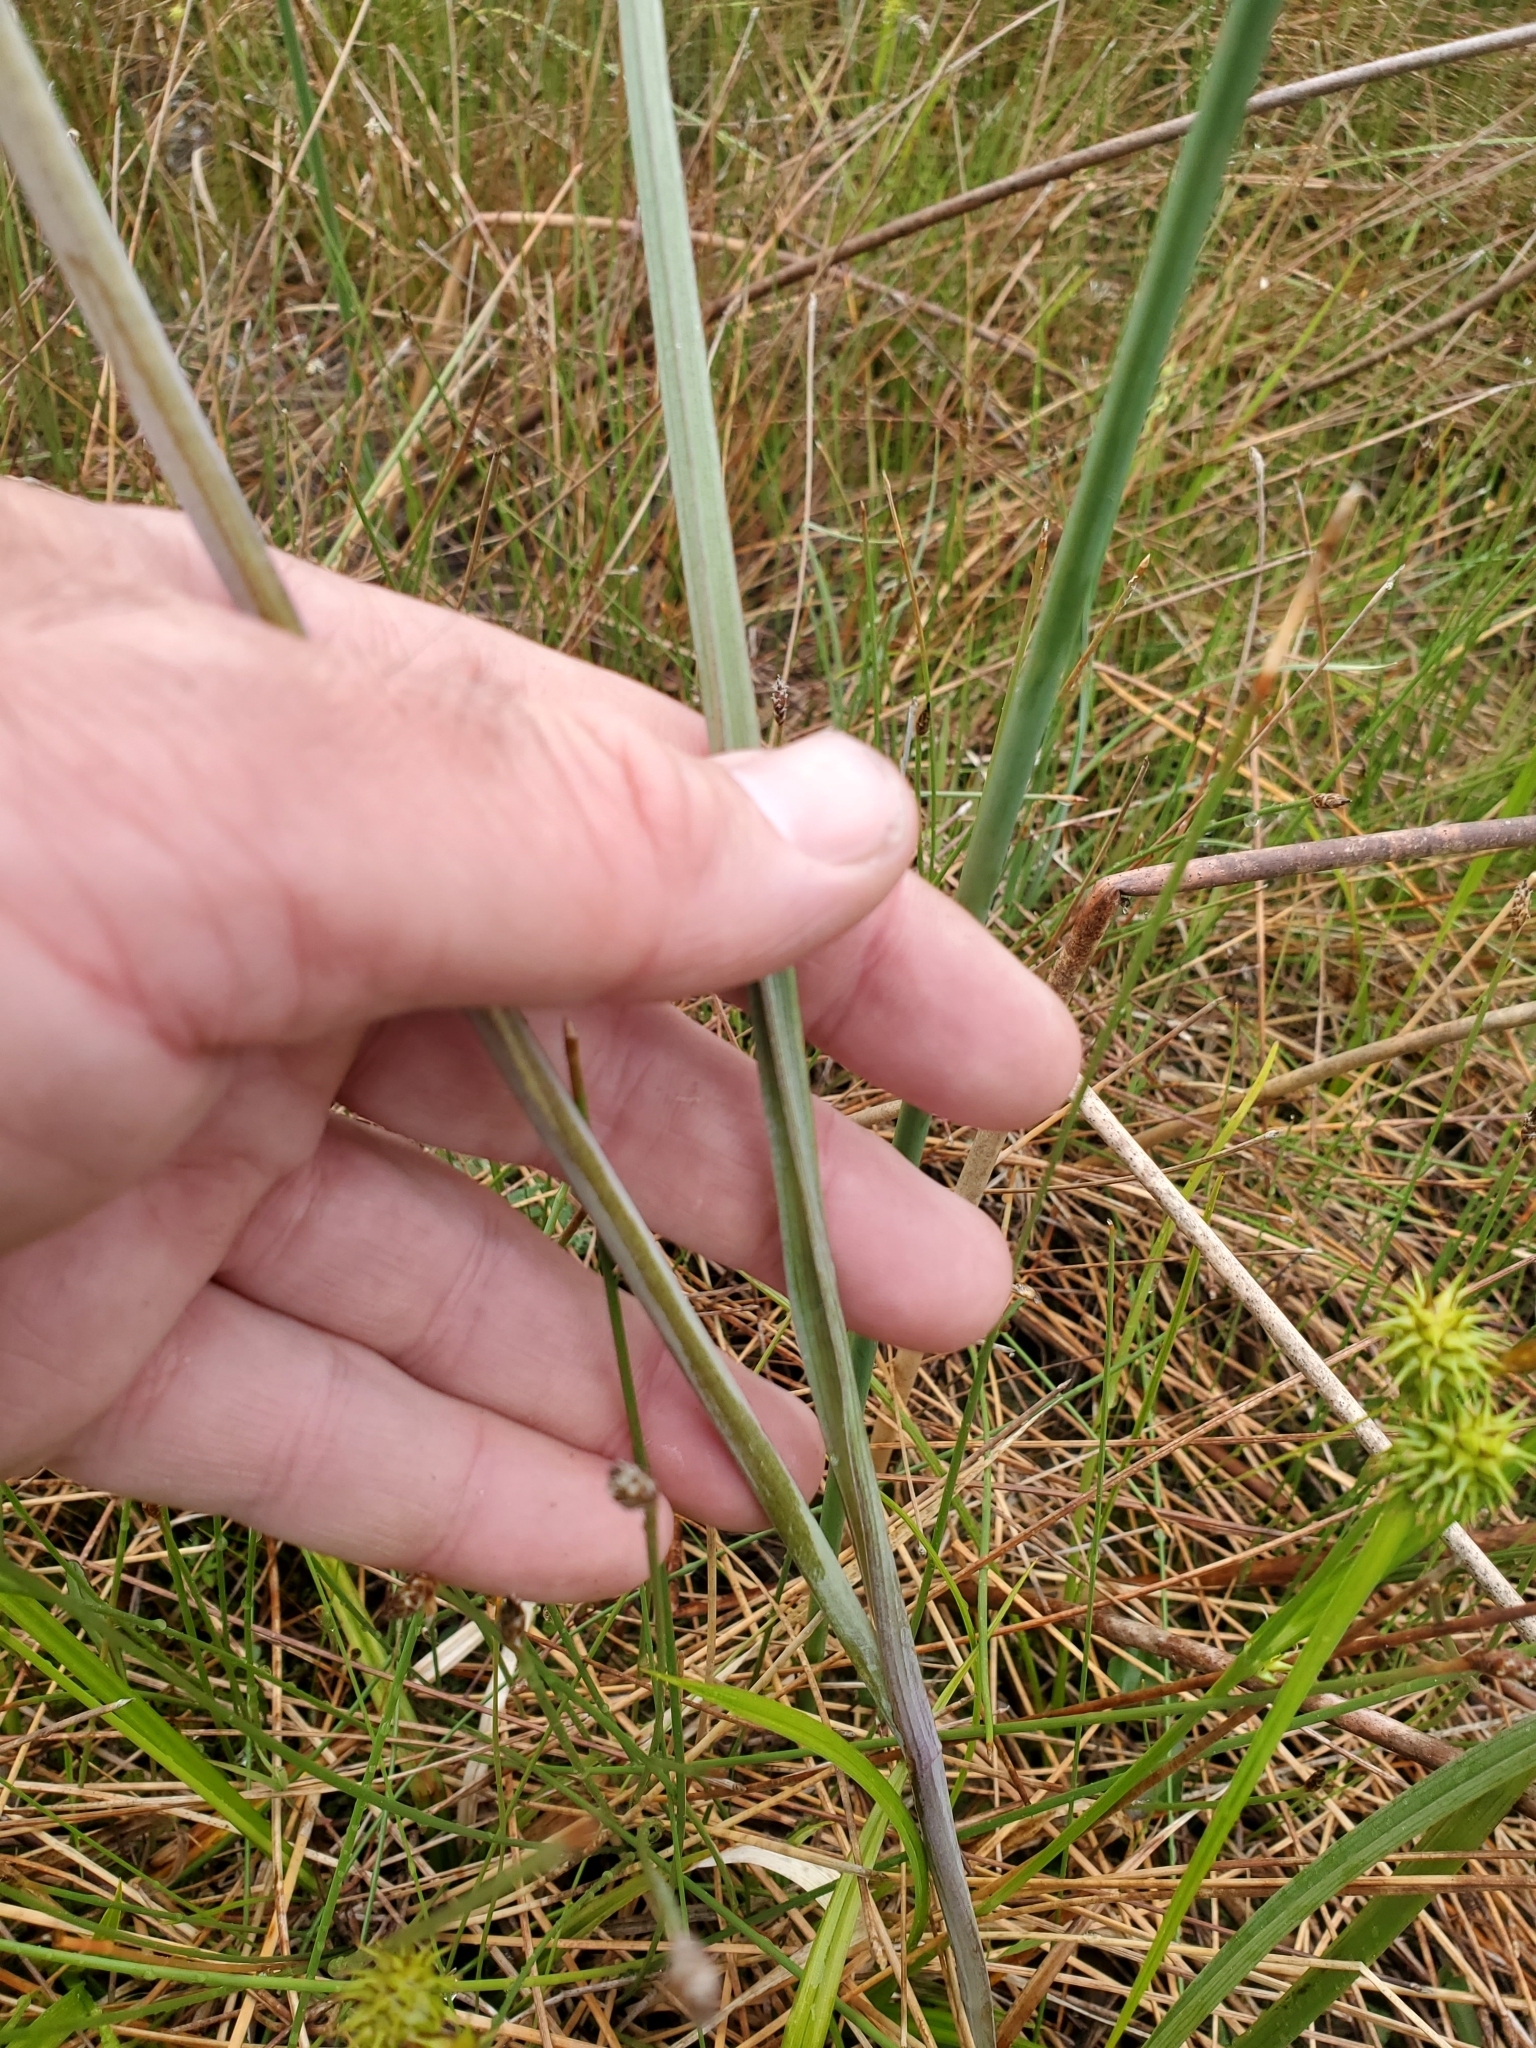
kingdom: Plantae
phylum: Tracheophyta
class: Liliopsida
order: Liliales
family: Melanthiaceae
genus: Anticlea
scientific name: Anticlea elegans
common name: Mountain death camas
